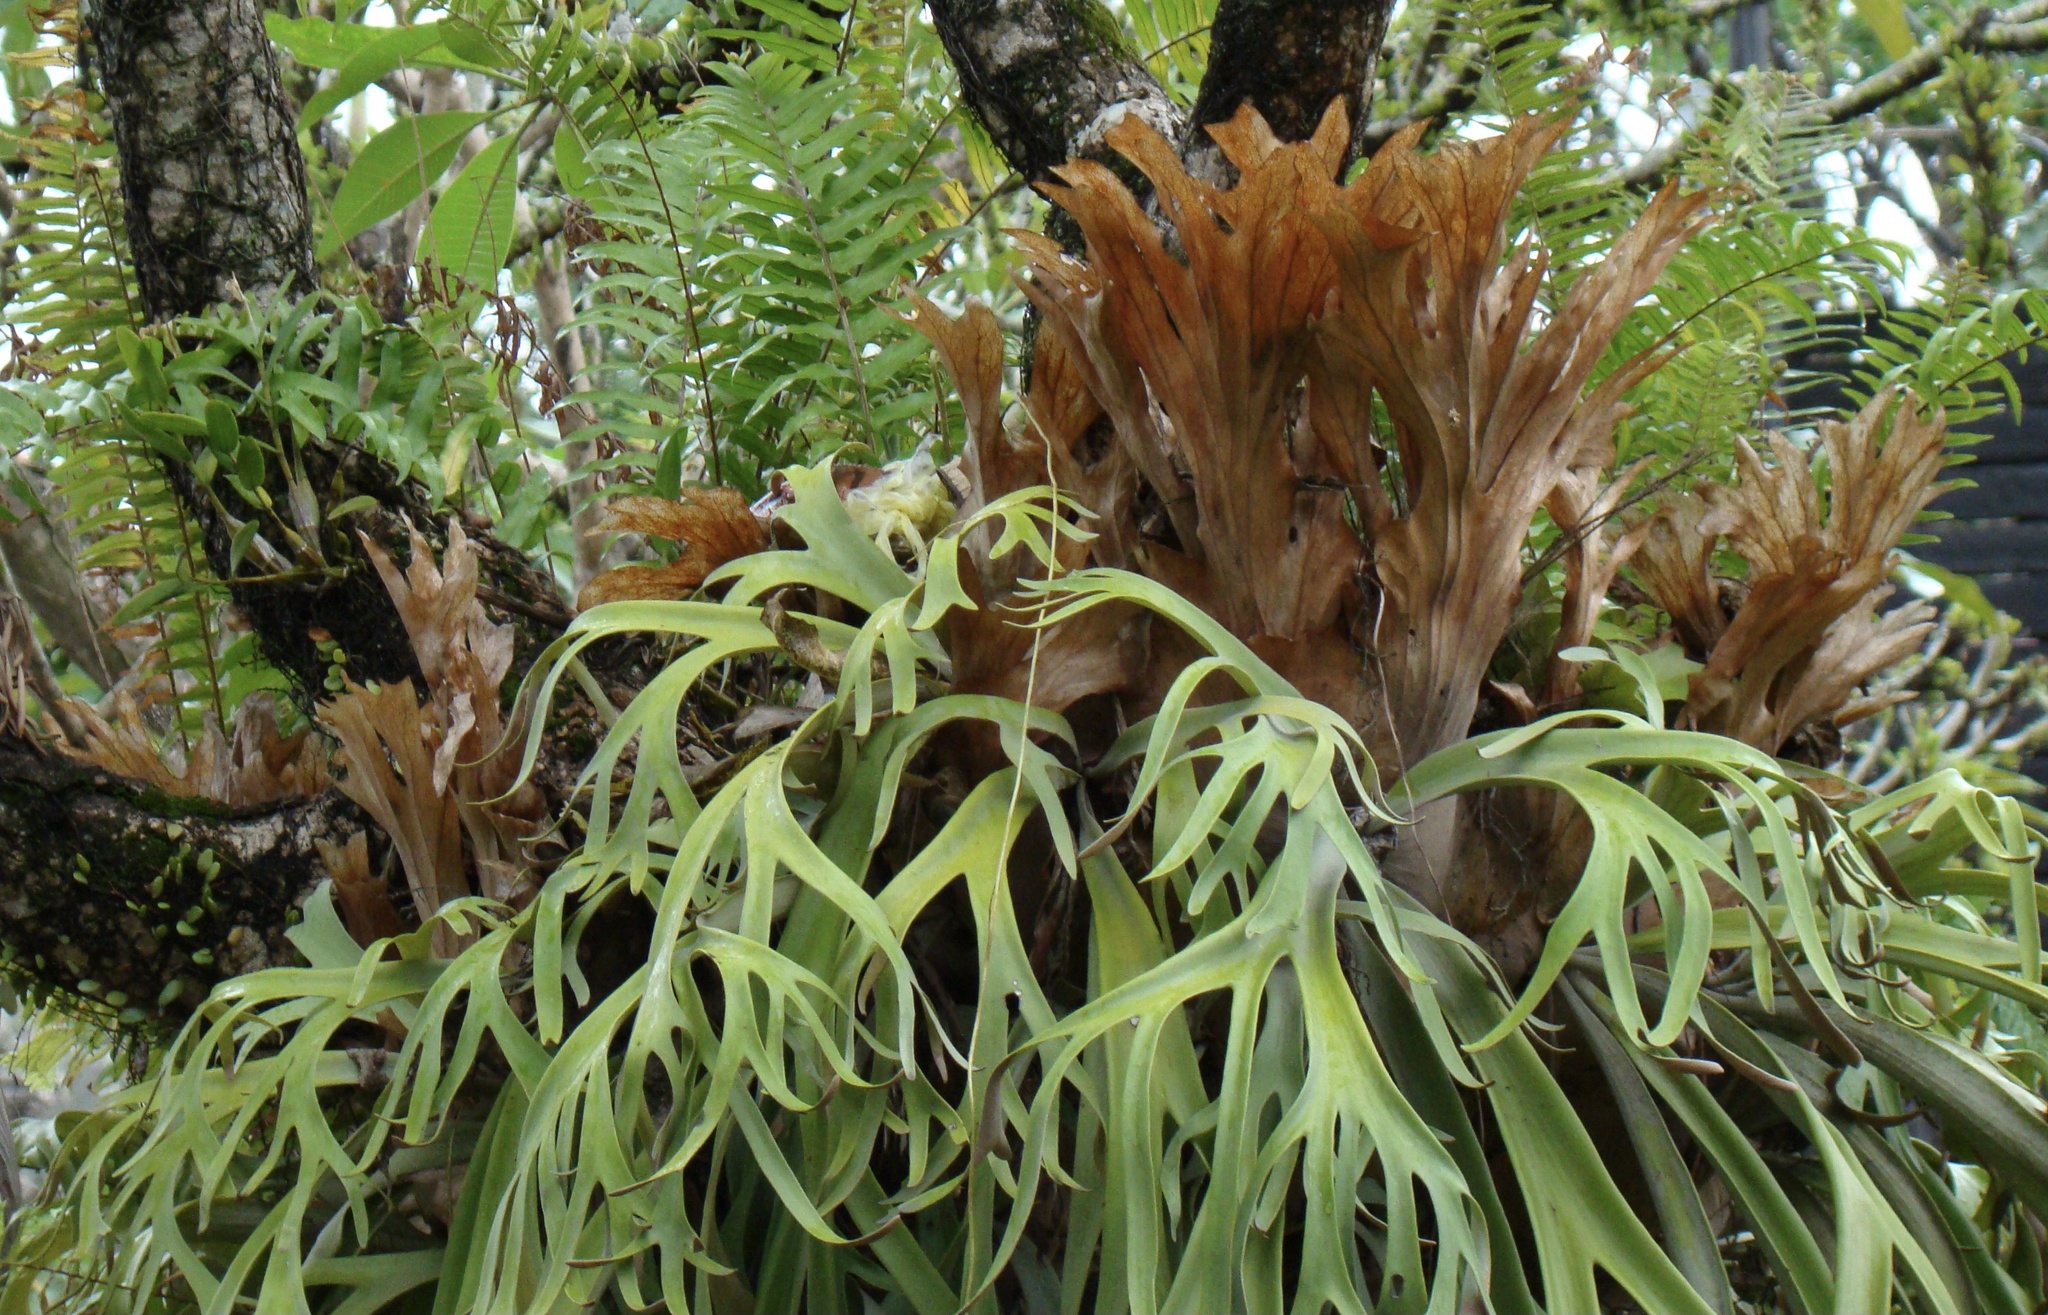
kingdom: Plantae
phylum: Tracheophyta
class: Polypodiopsida
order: Polypodiales
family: Polypodiaceae
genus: Platycerium
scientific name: Platycerium bifurcatum
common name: Elkhorn fern
